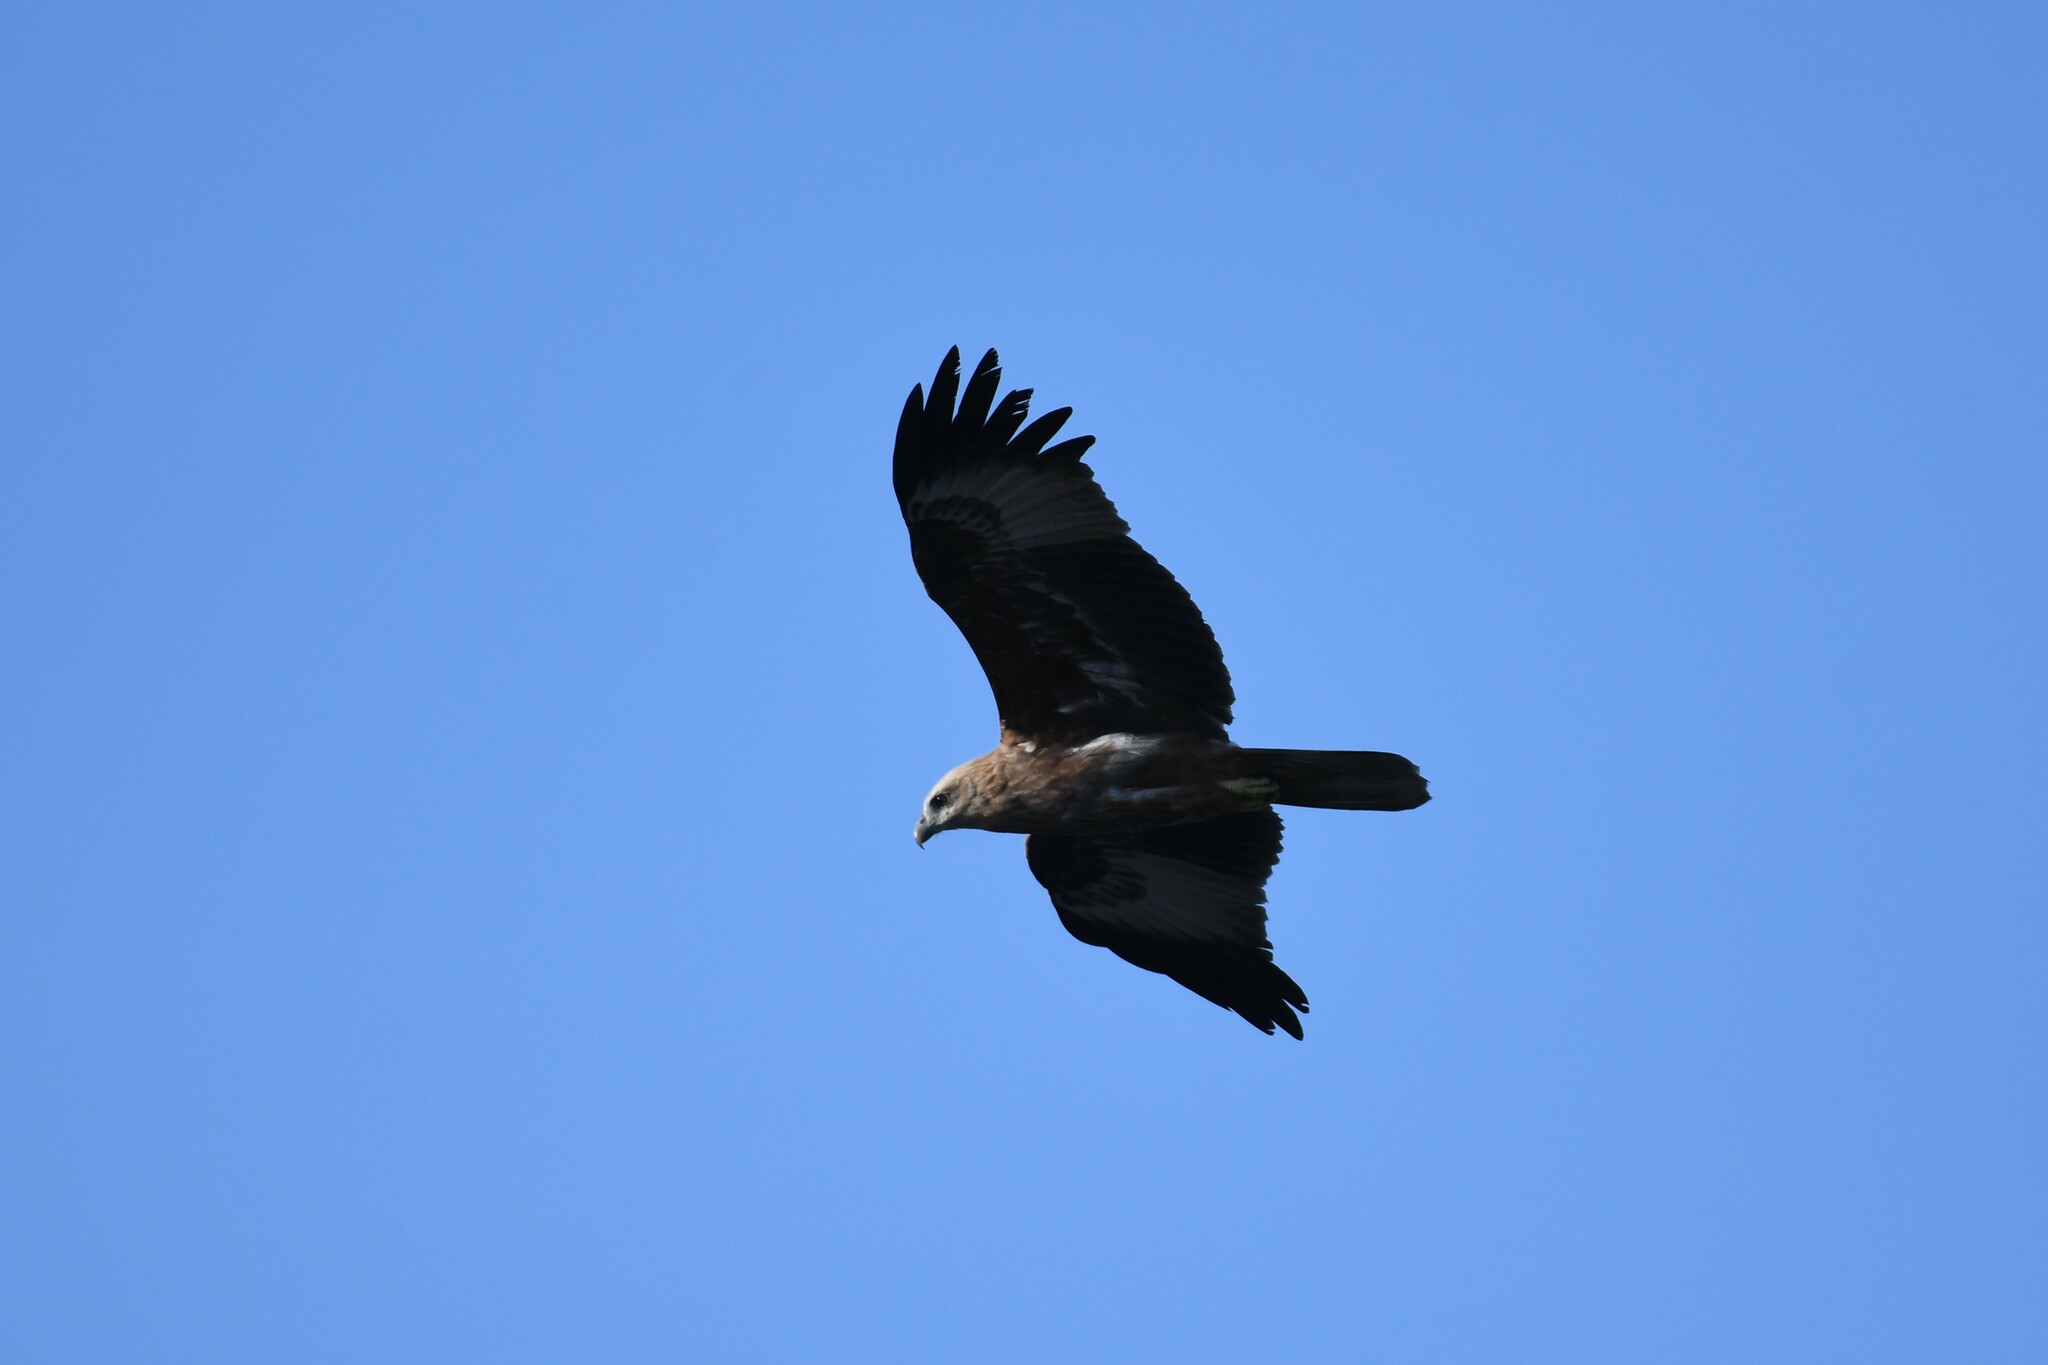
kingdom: Animalia
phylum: Chordata
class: Aves
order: Accipitriformes
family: Accipitridae
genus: Haliastur
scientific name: Haliastur indus
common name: Brahminy kite
